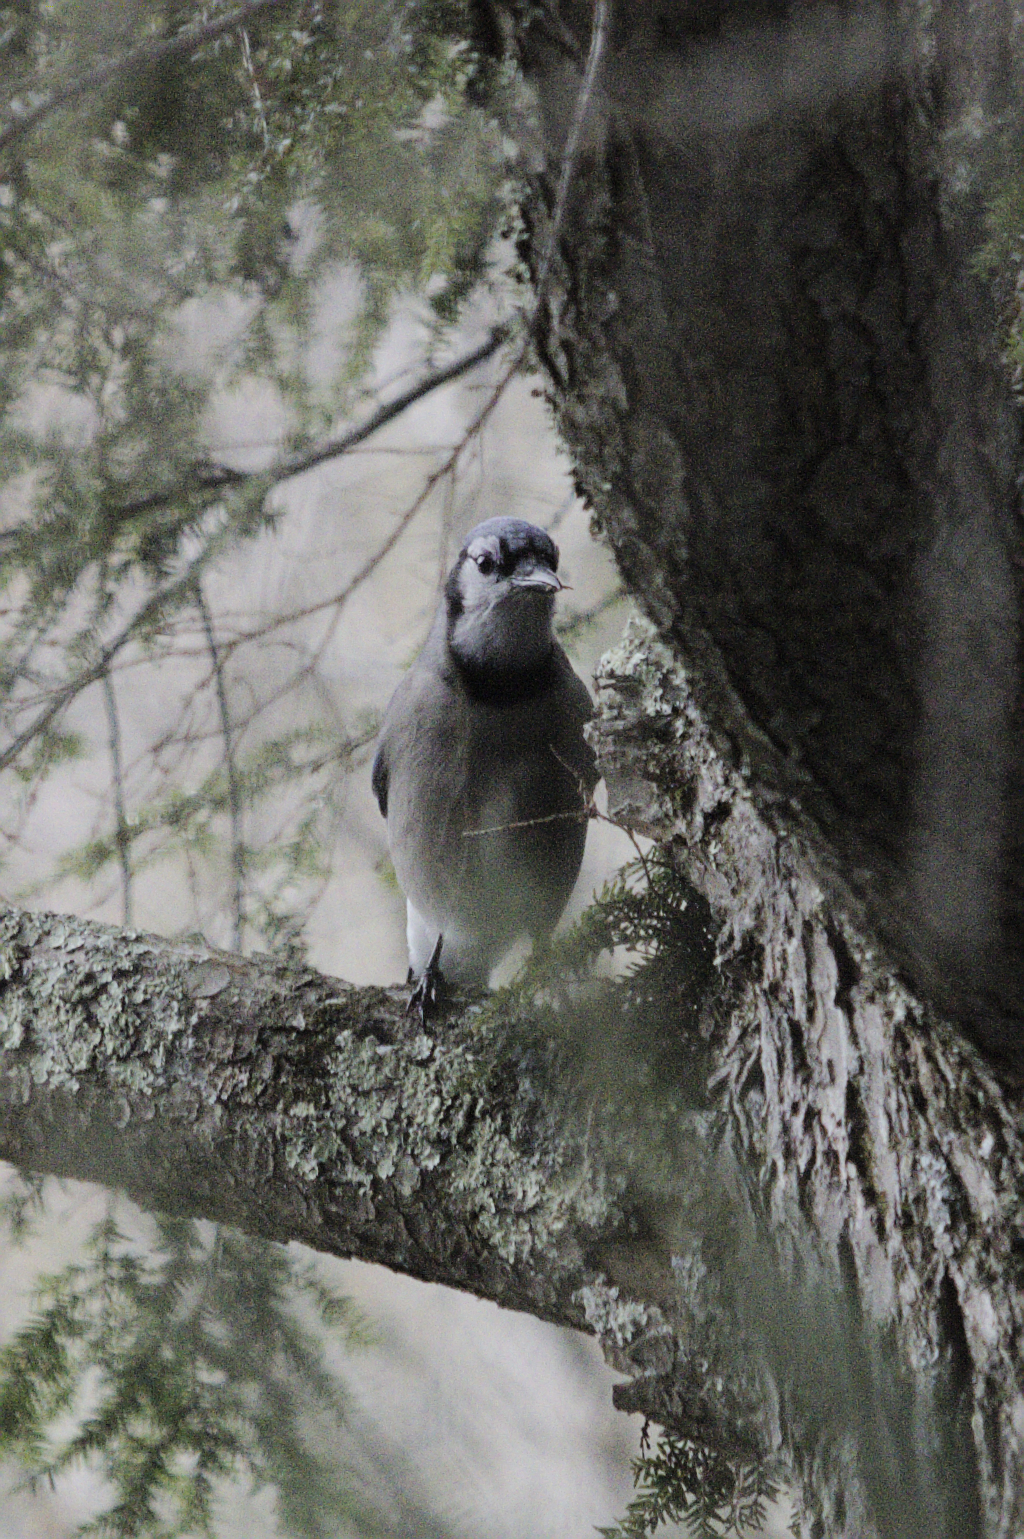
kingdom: Animalia
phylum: Chordata
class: Aves
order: Passeriformes
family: Corvidae
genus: Cyanocitta
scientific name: Cyanocitta cristata
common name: Blue jay
